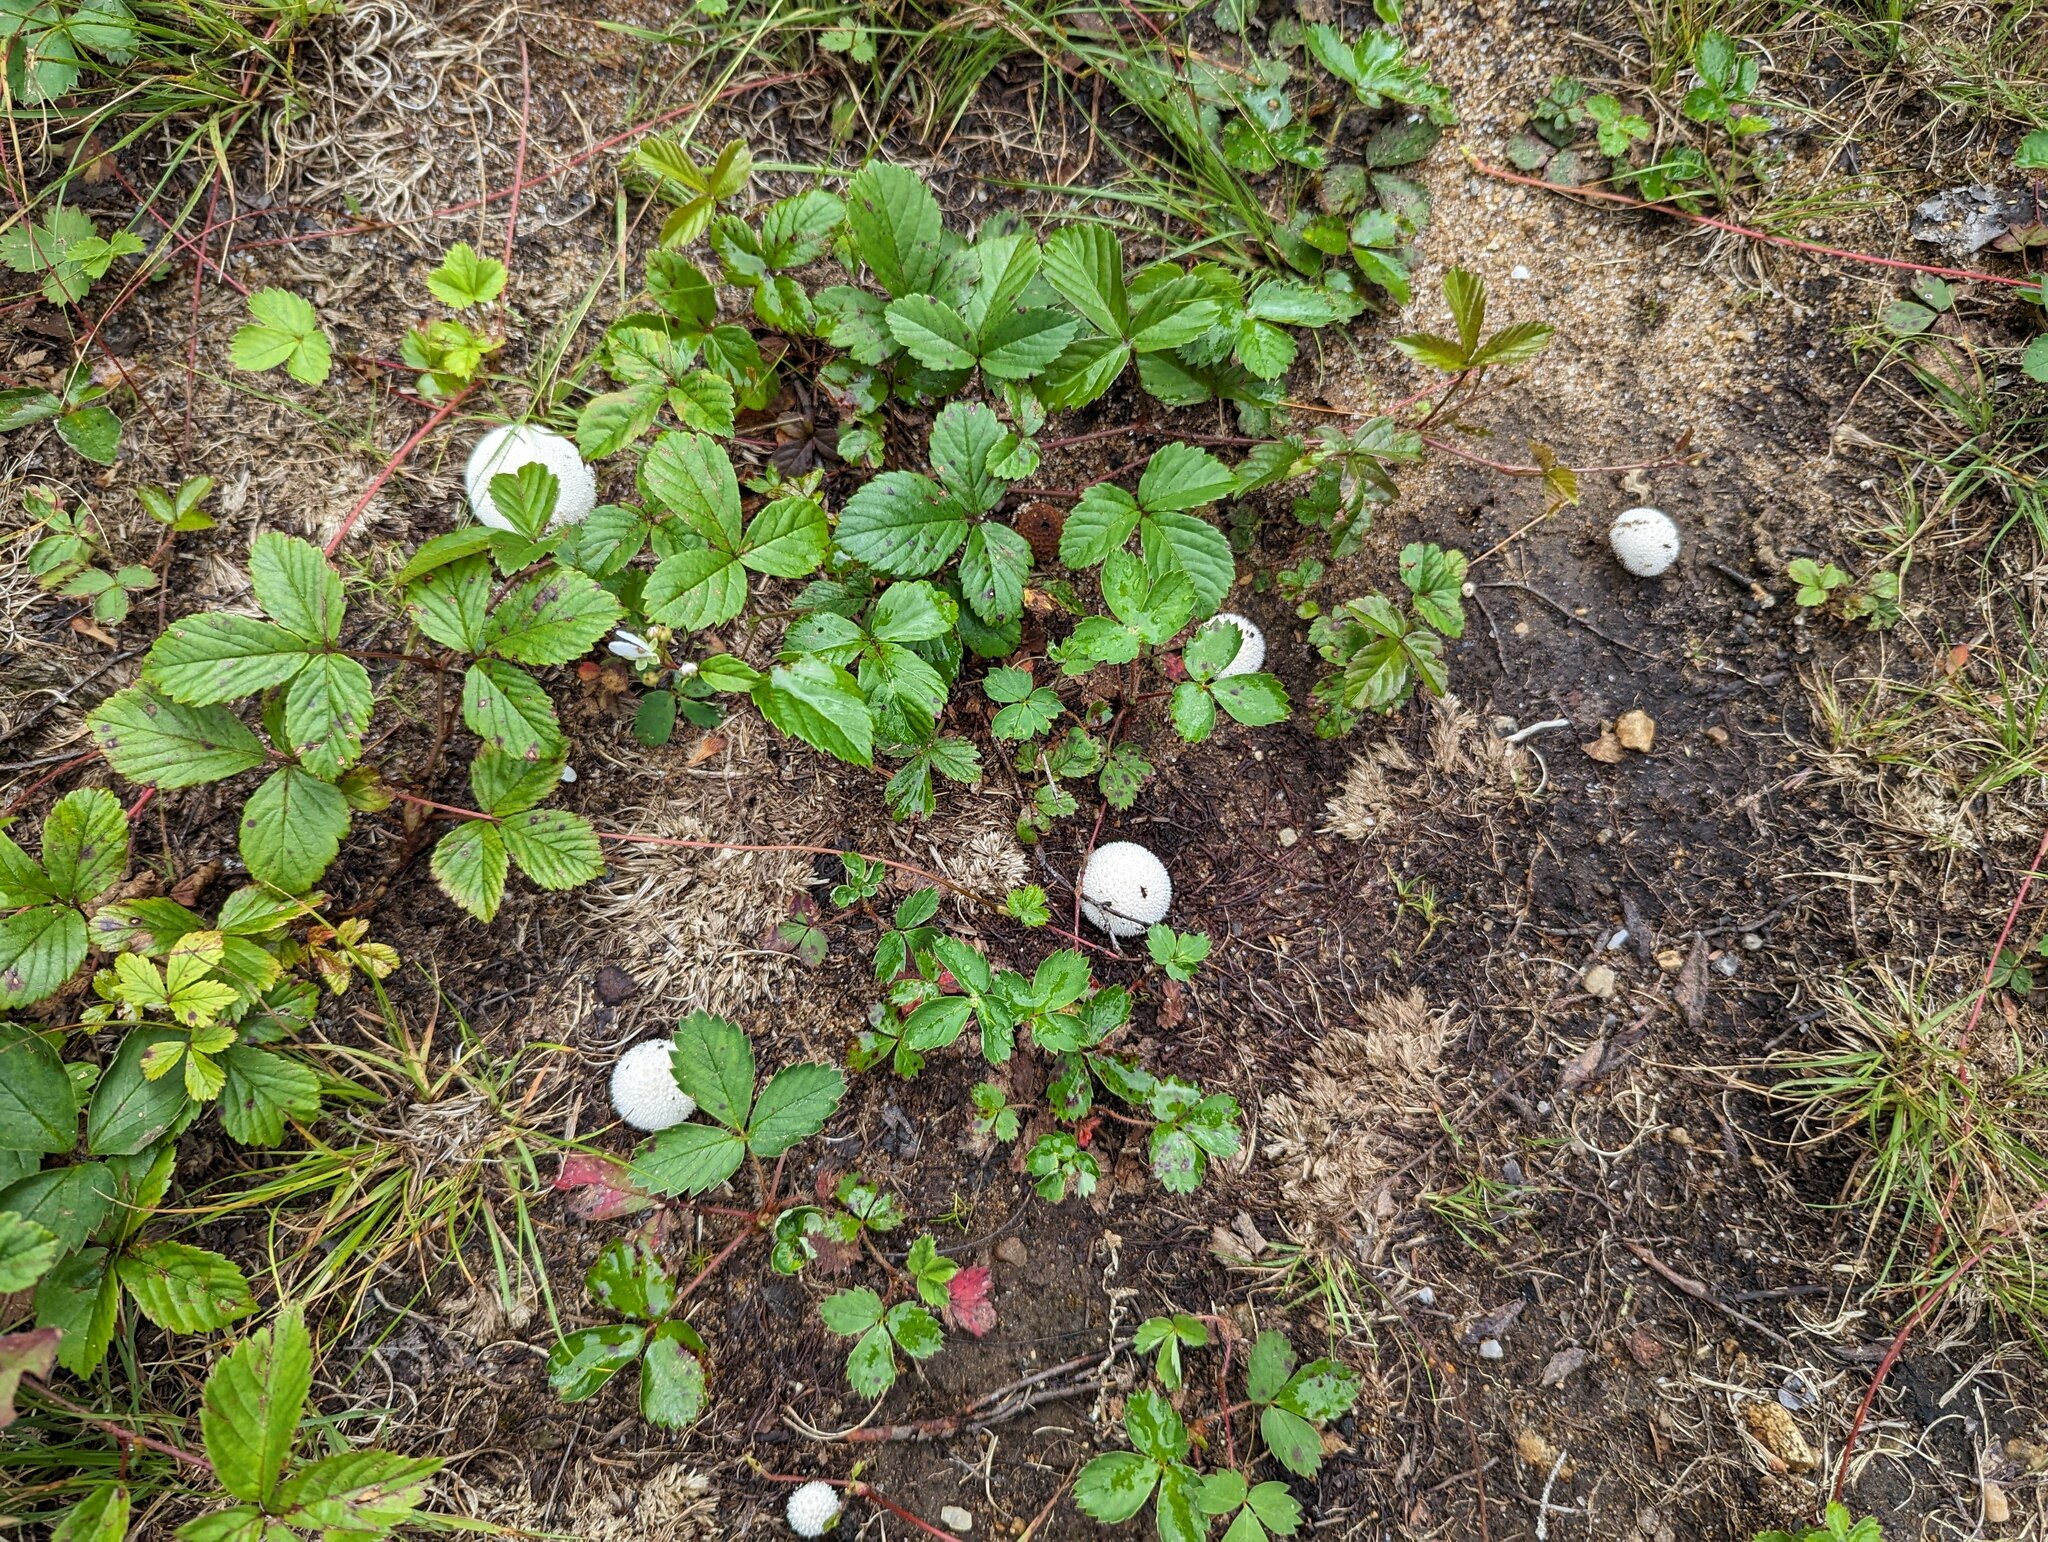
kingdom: Plantae
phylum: Tracheophyta
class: Magnoliopsida
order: Rosales
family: Rosaceae
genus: Rubus
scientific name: Rubus hispidus
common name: Running blackberry
